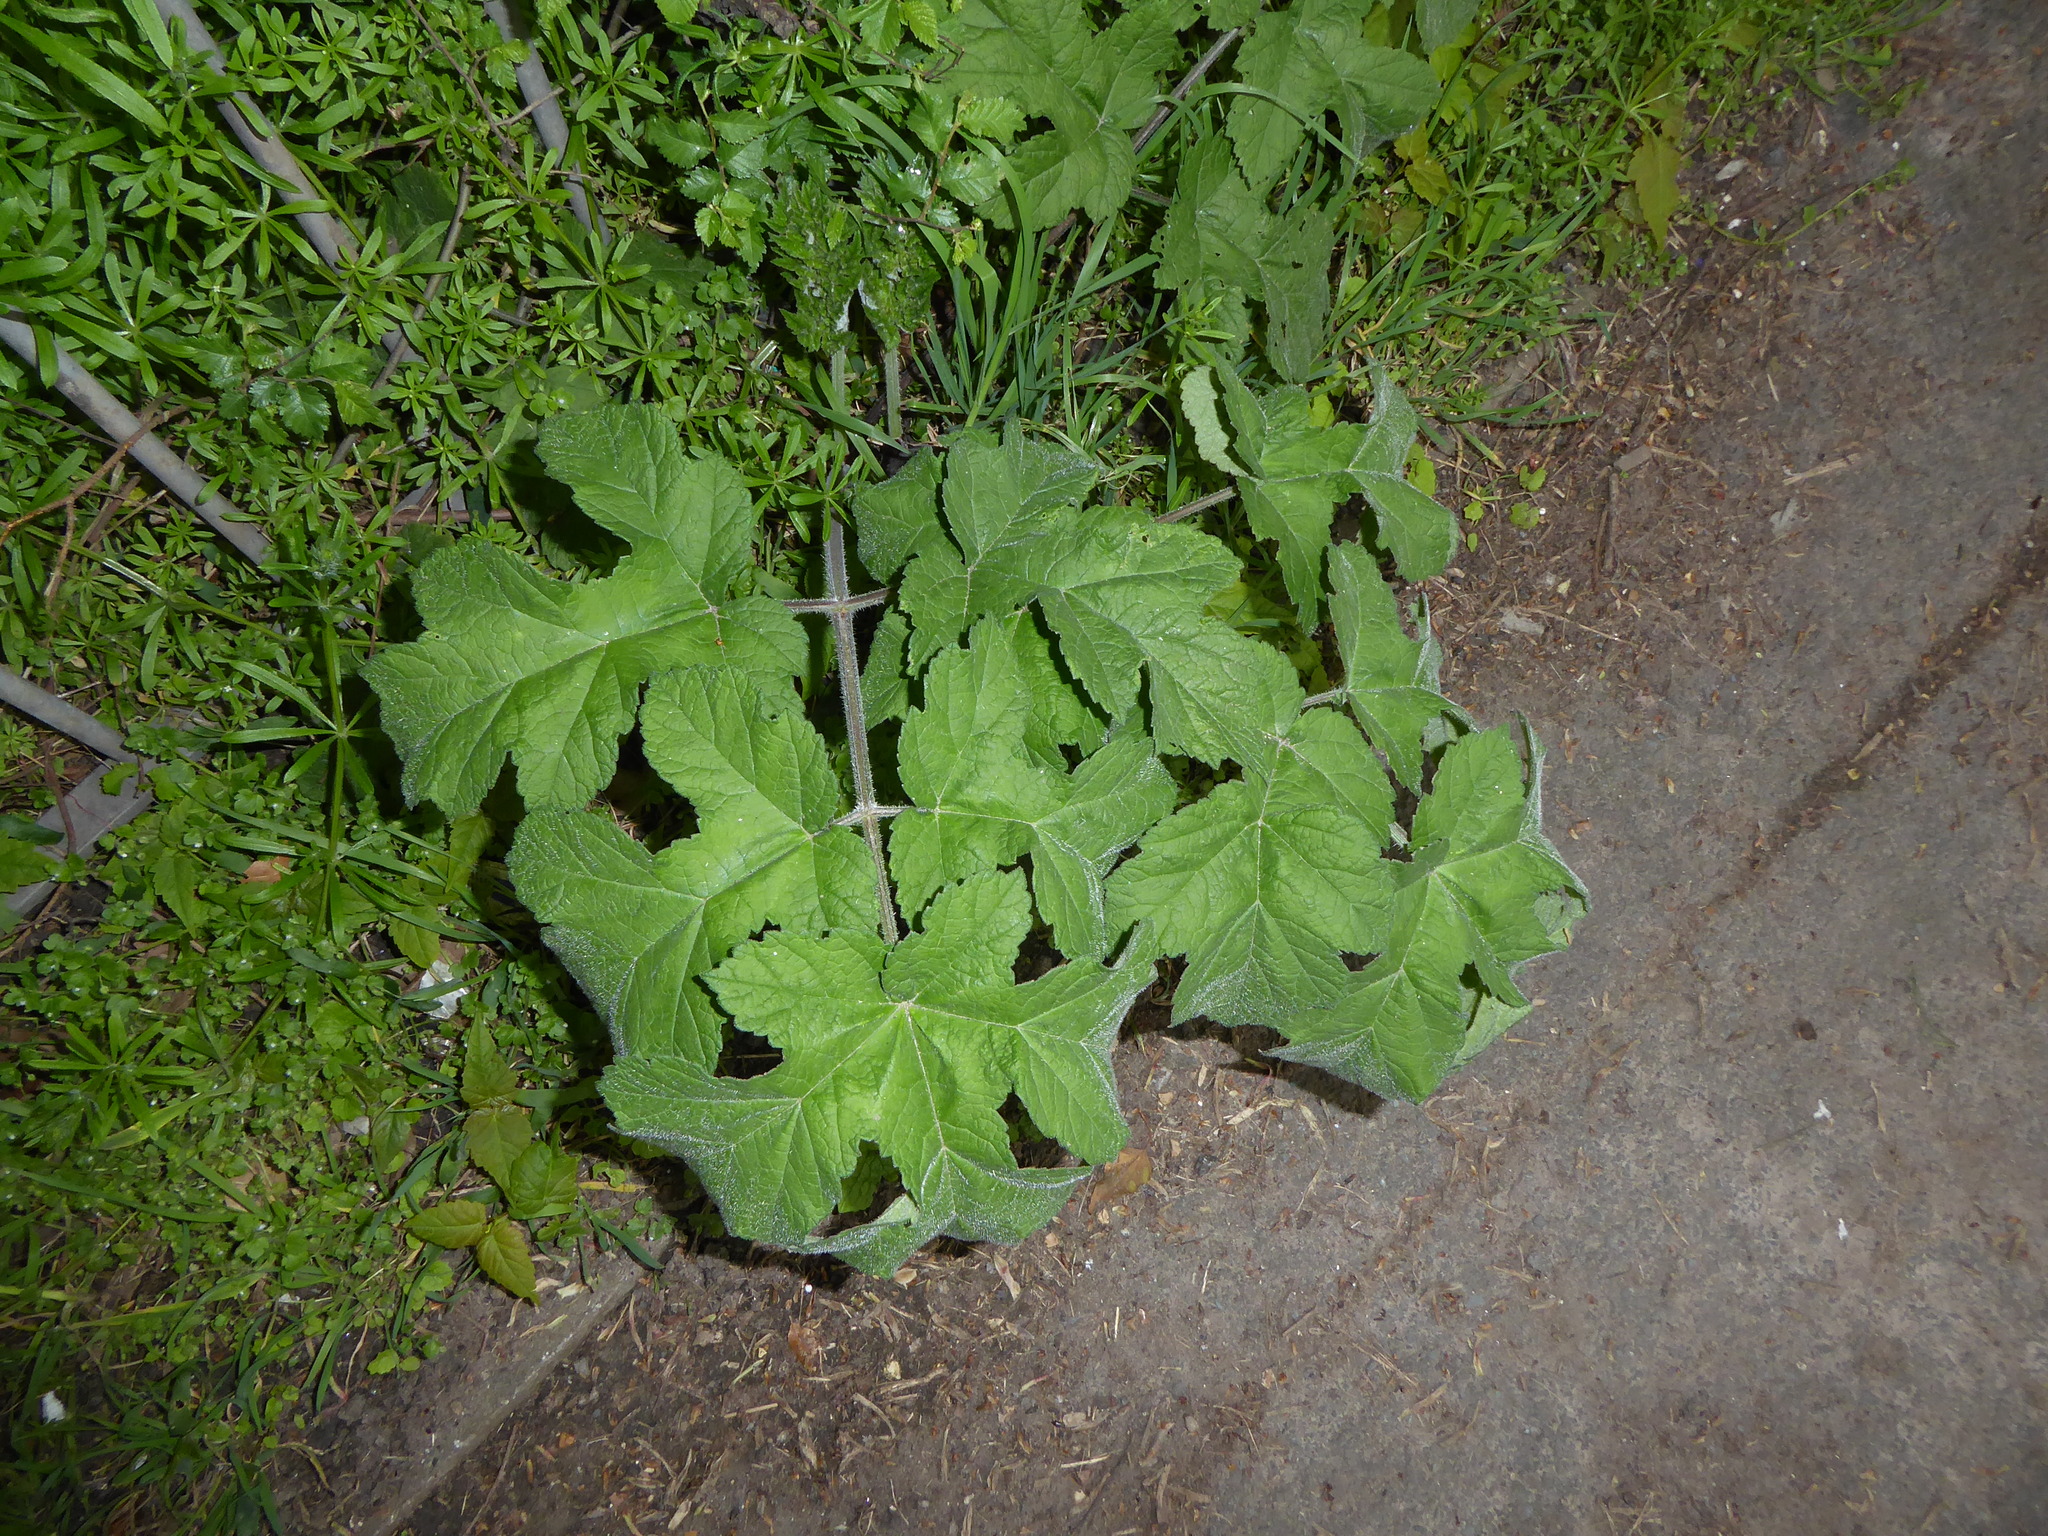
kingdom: Plantae
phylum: Tracheophyta
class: Magnoliopsida
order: Apiales
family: Apiaceae
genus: Heracleum
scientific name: Heracleum sphondylium
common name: Hogweed
